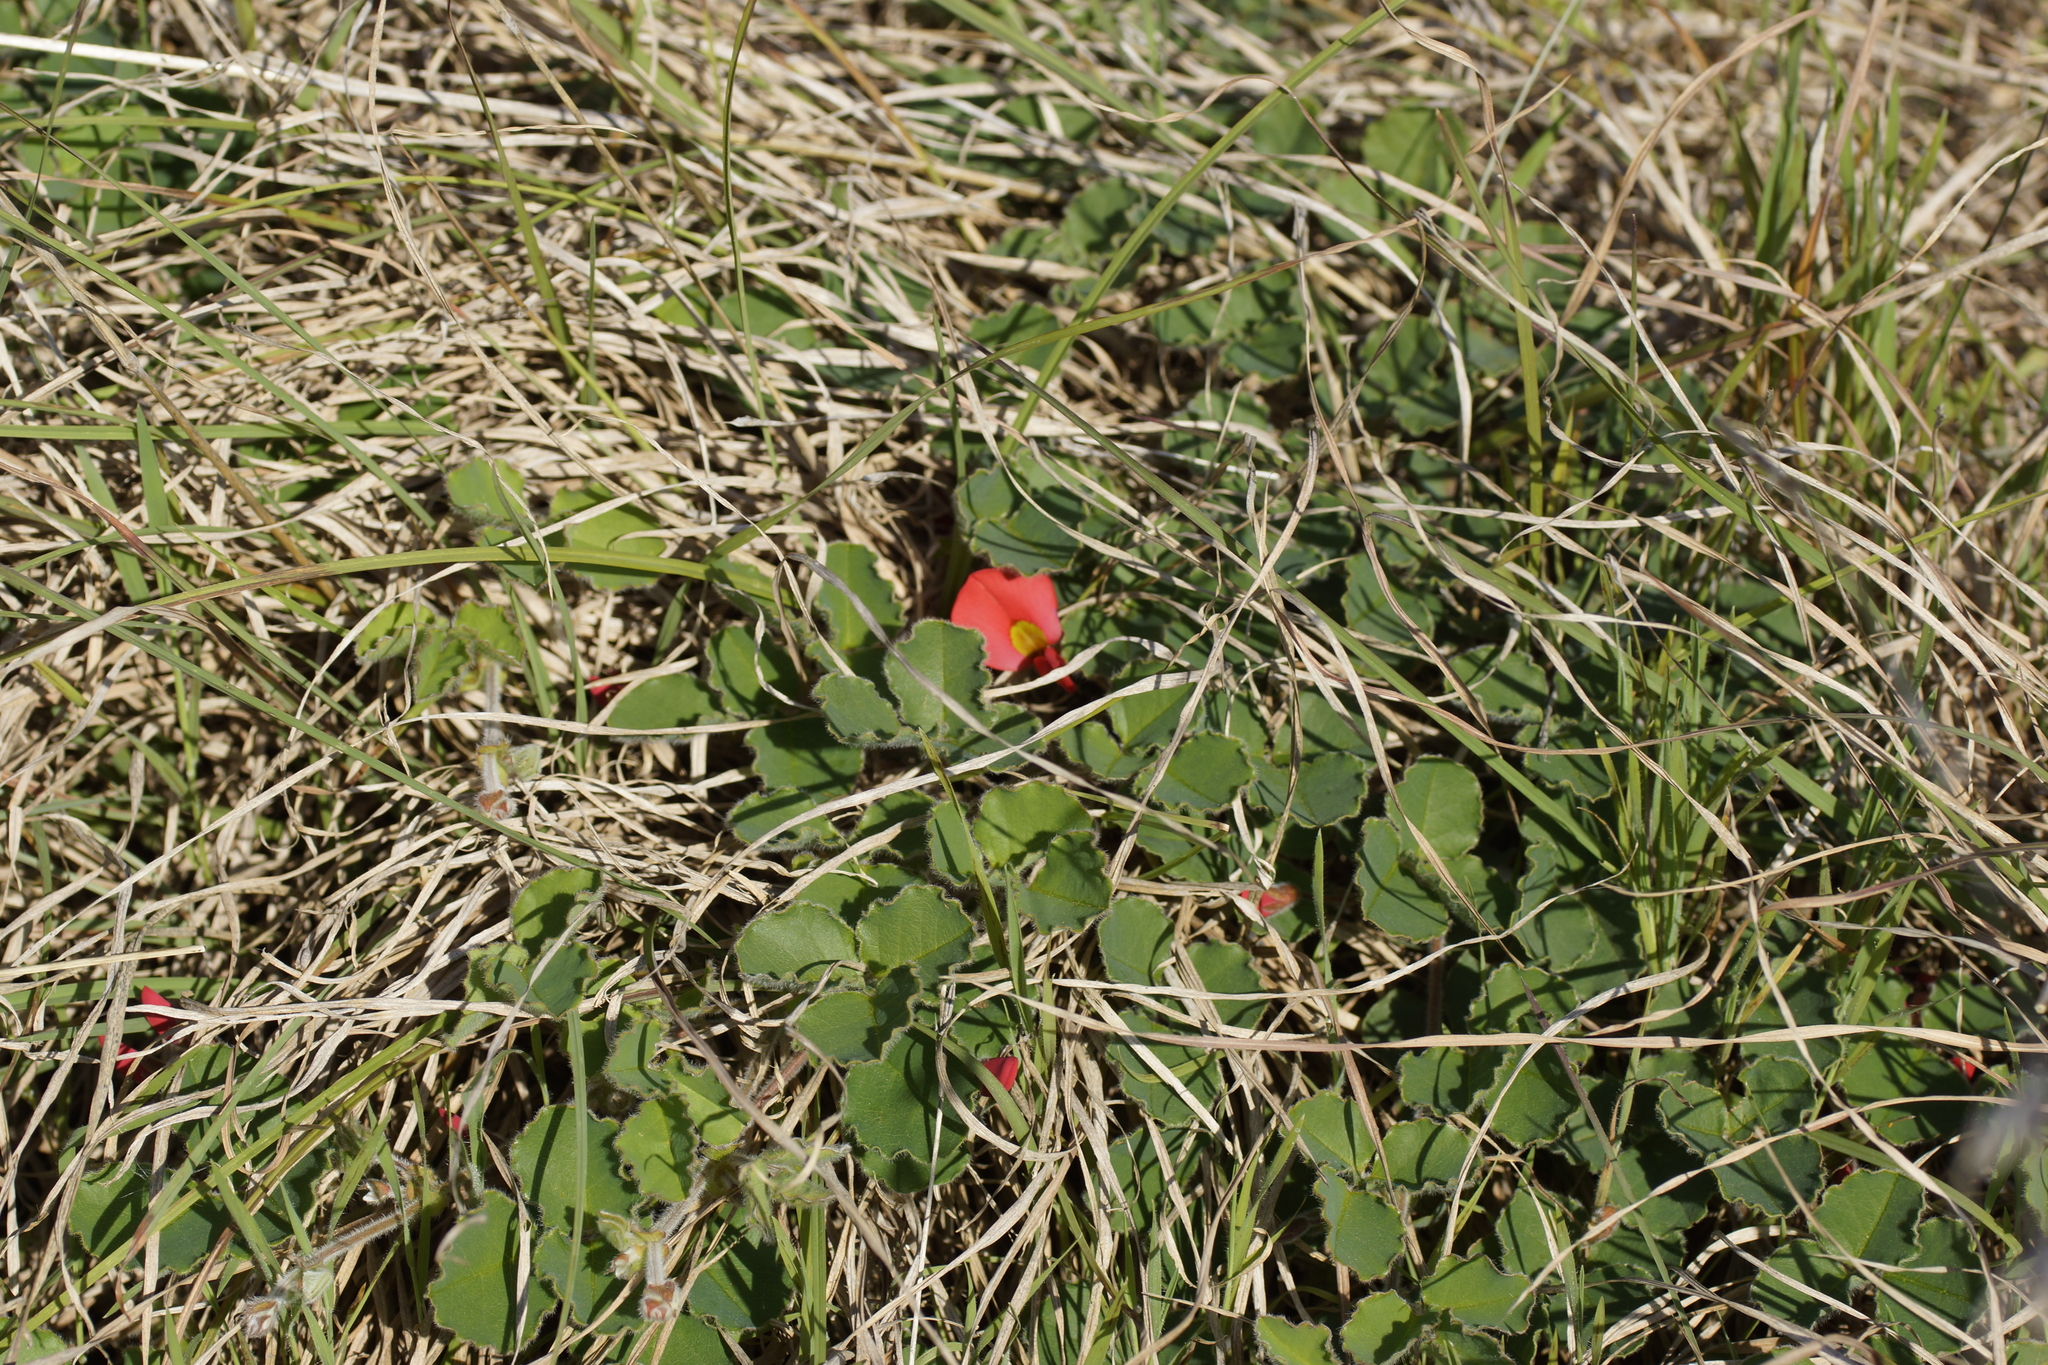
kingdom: Plantae
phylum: Tracheophyta
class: Magnoliopsida
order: Fabales
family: Fabaceae
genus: Kennedia
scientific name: Kennedia prostrata
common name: Running-postman
